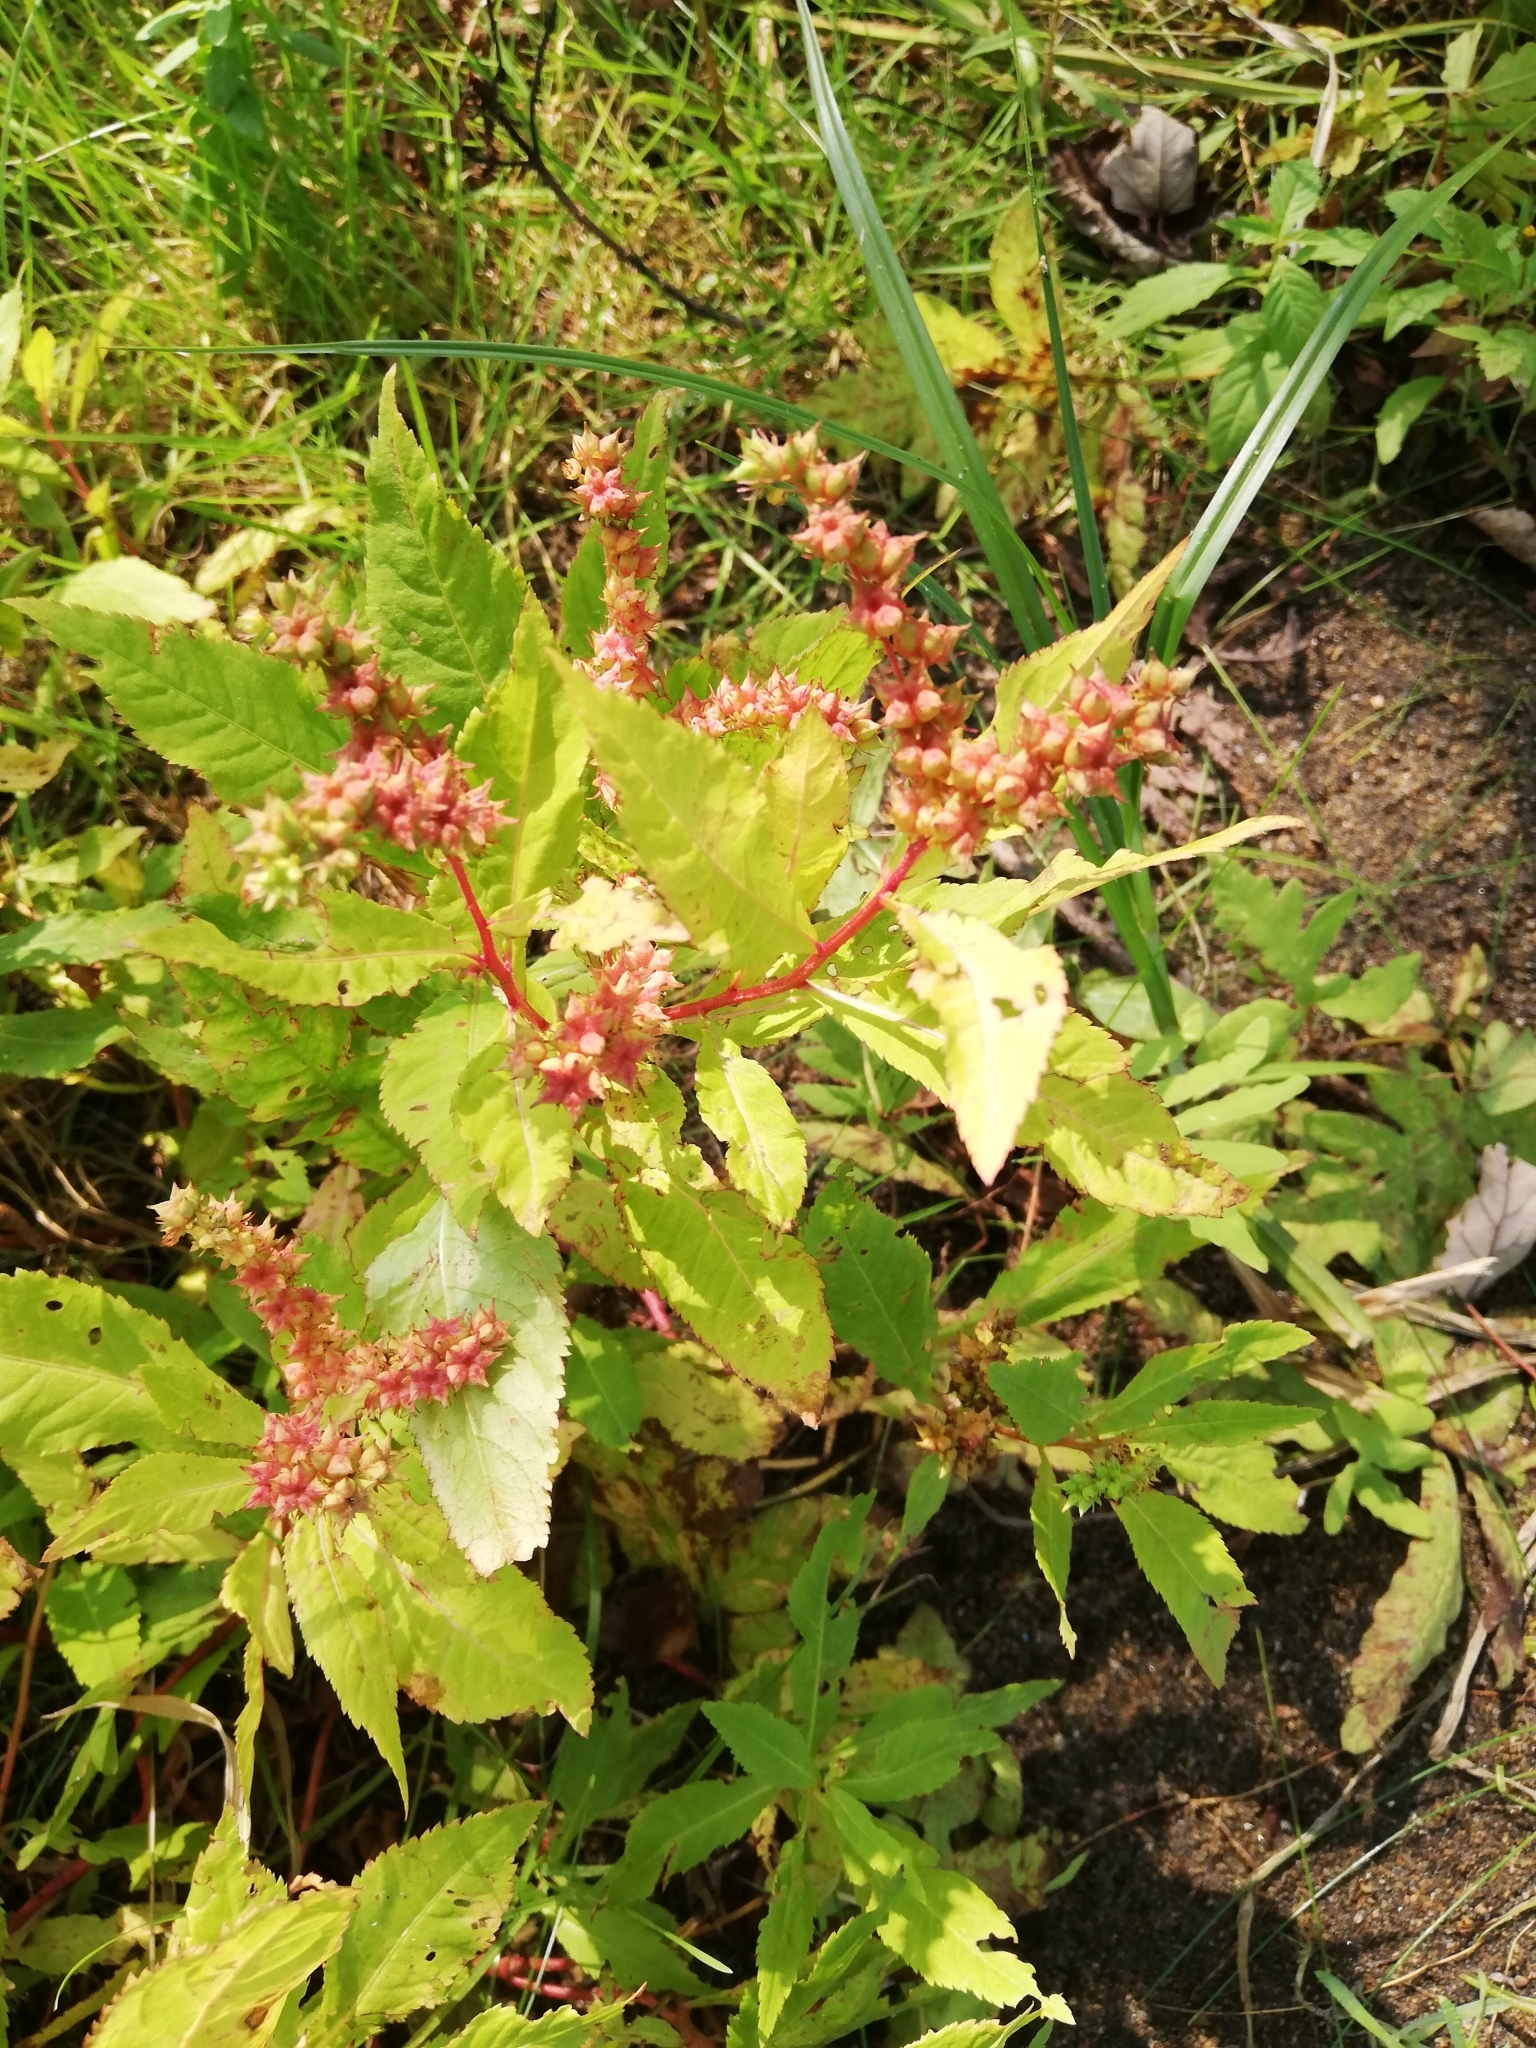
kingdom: Plantae
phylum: Tracheophyta
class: Magnoliopsida
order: Saxifragales
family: Penthoraceae
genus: Penthorum
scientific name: Penthorum sedoides
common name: Ditch stonecrop
